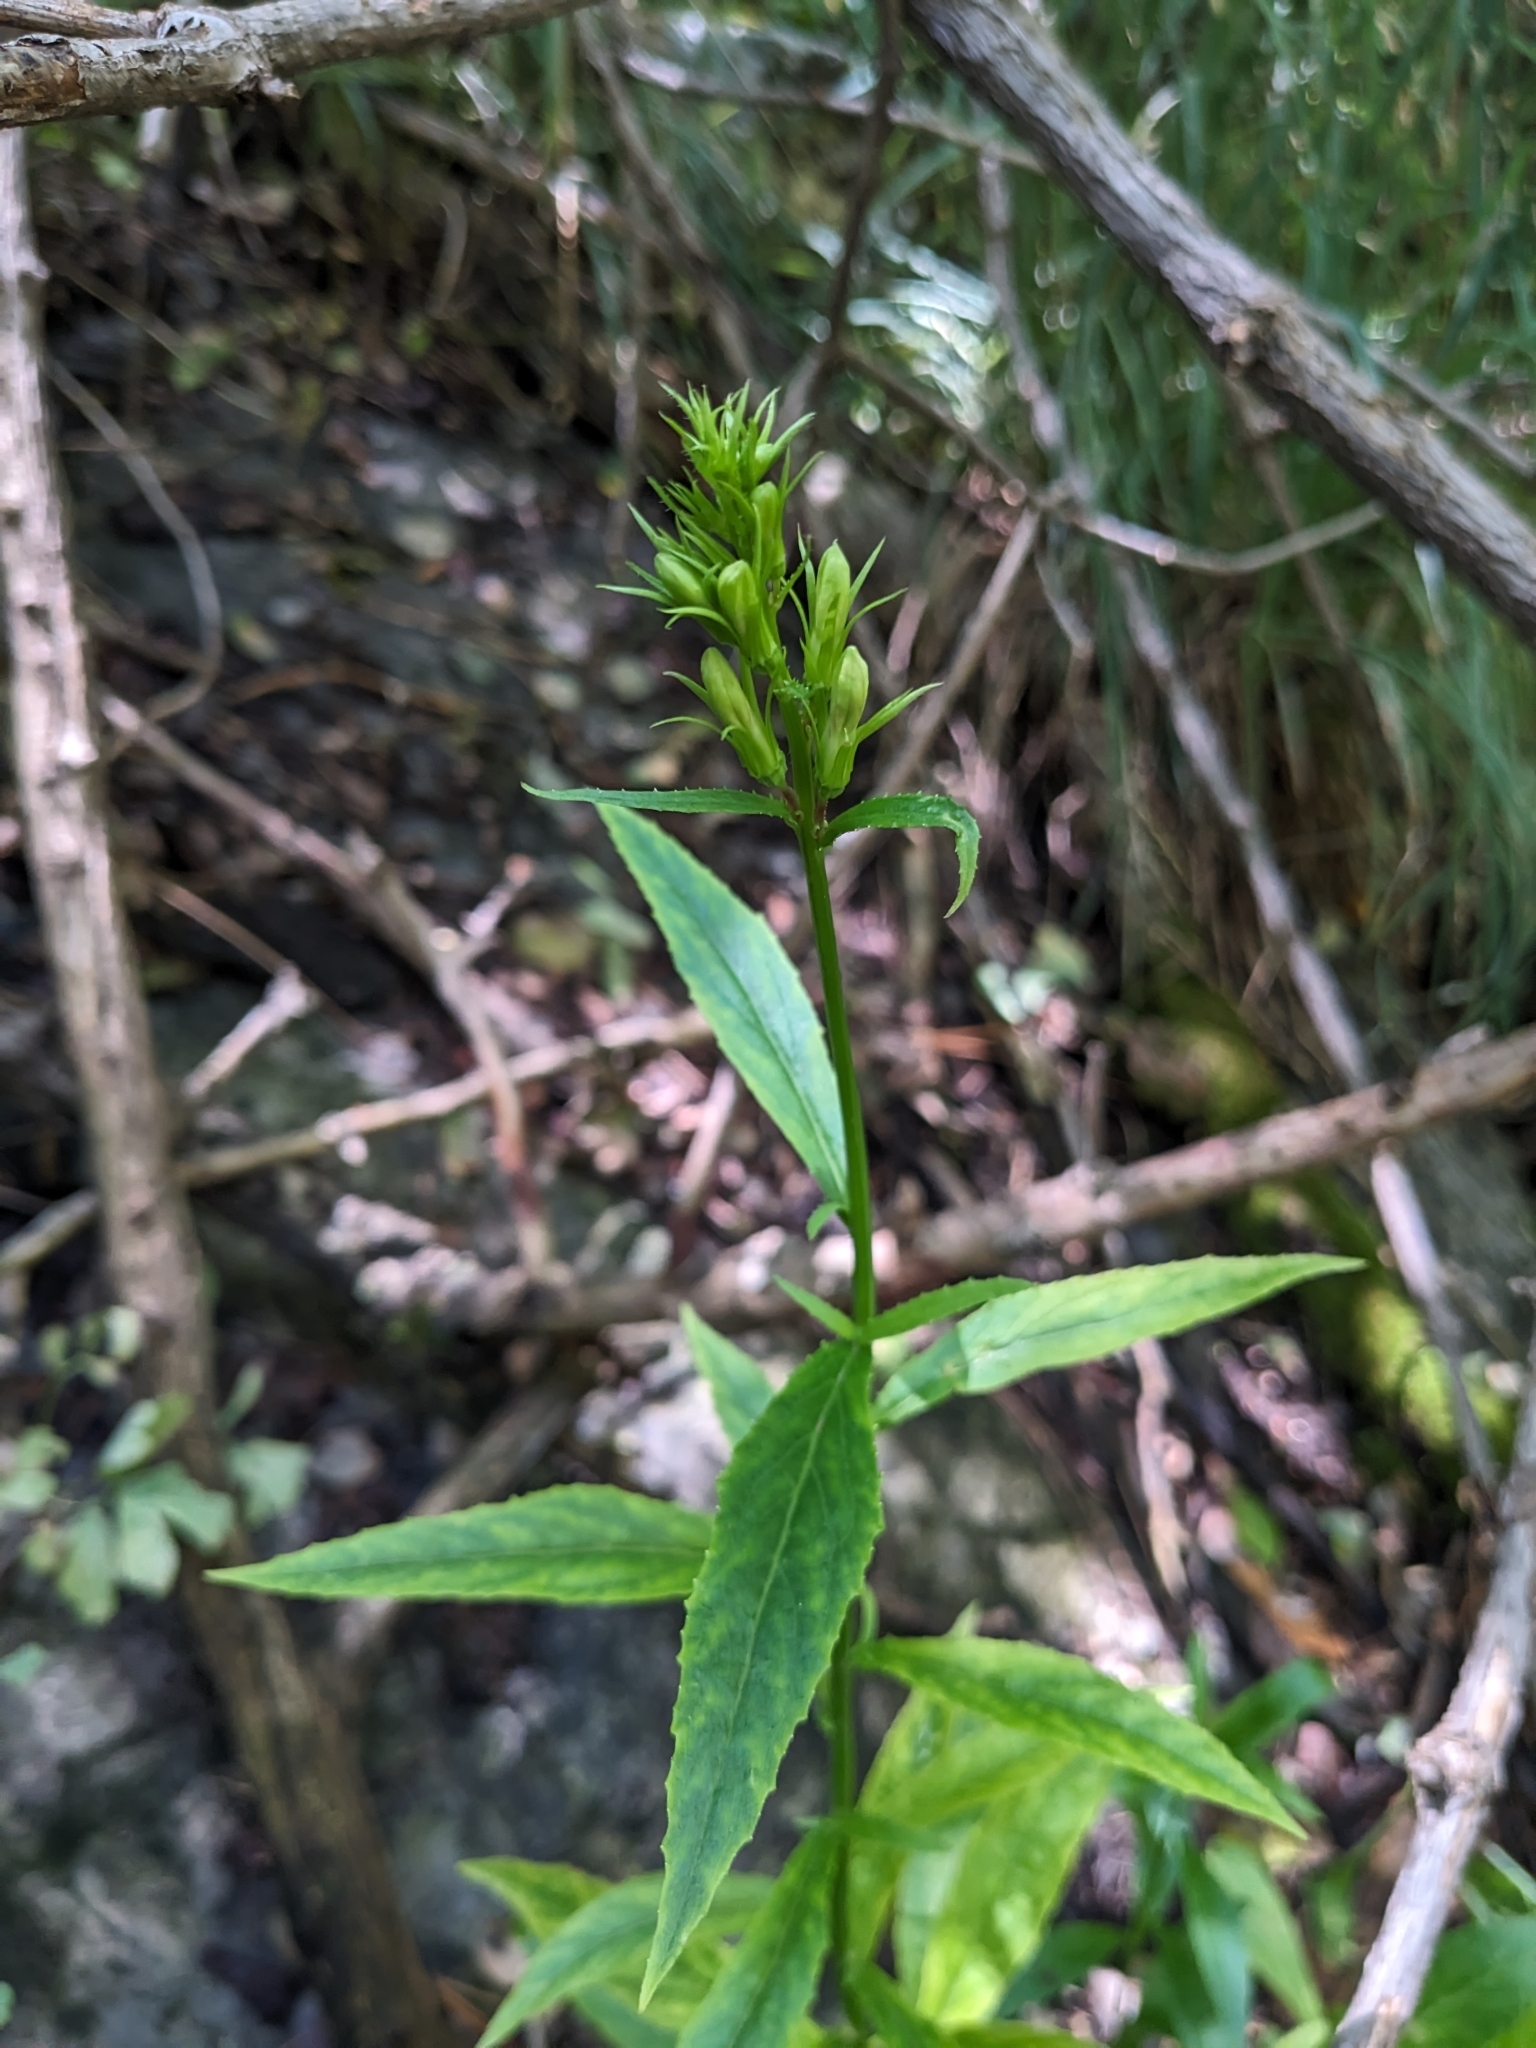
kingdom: Plantae
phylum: Tracheophyta
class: Magnoliopsida
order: Asterales
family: Campanulaceae
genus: Lobelia
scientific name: Lobelia cardinalis
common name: Cardinal flower
